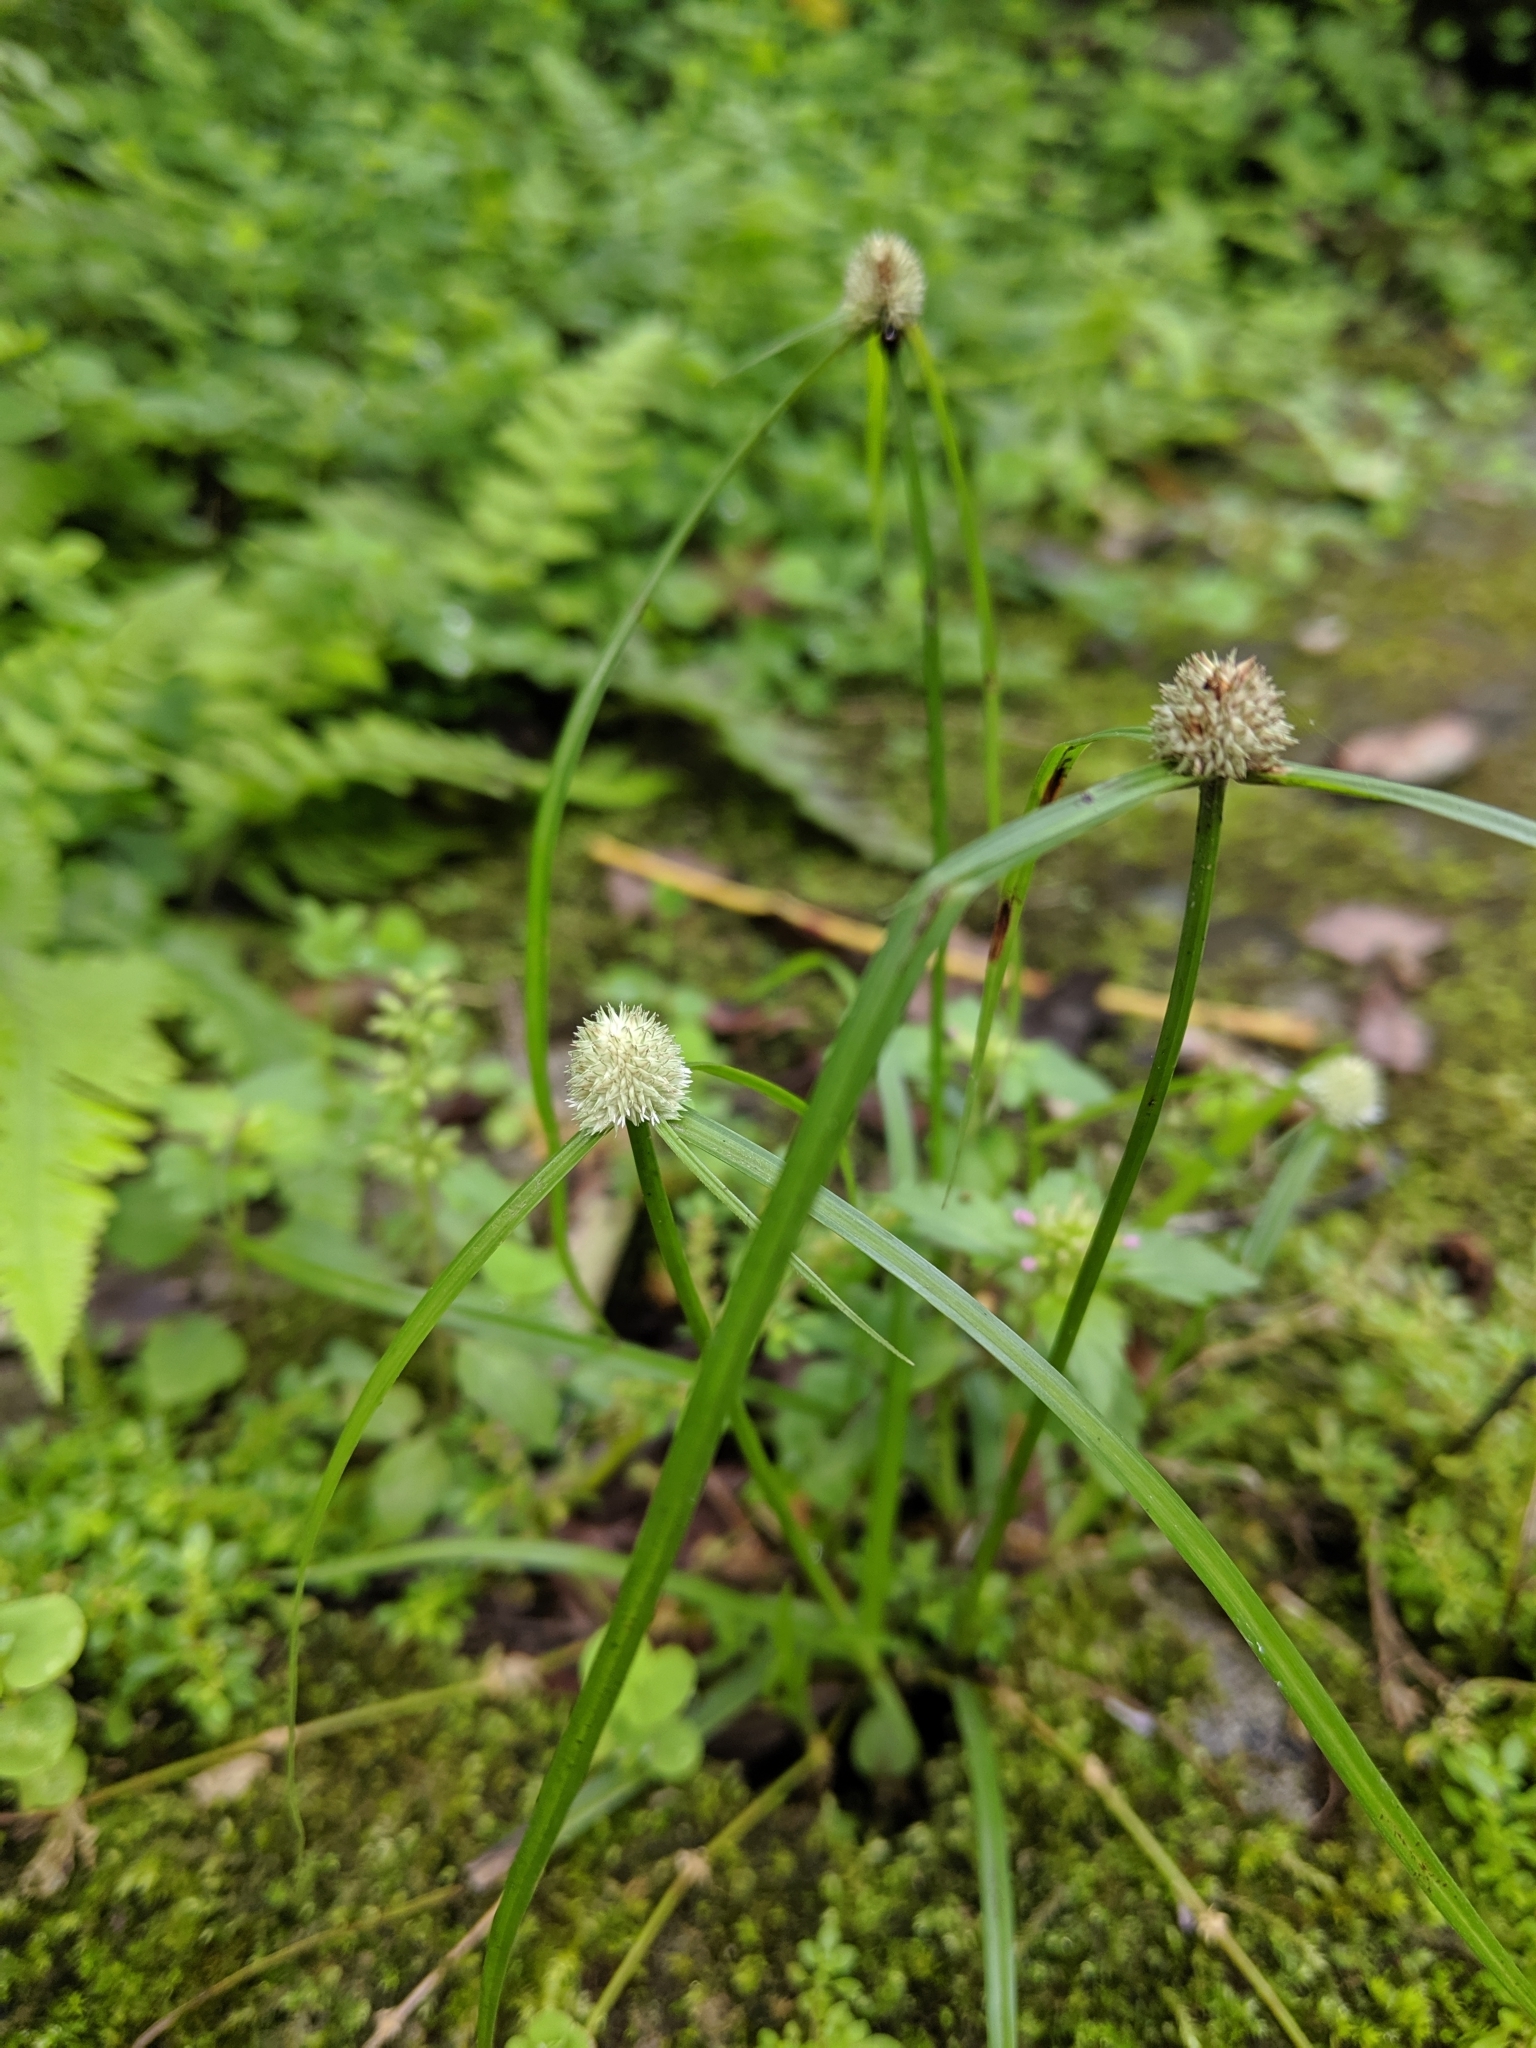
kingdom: Plantae
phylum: Tracheophyta
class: Liliopsida
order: Poales
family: Cyperaceae
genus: Cyperus
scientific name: Cyperus mindorensis
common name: Flatsedge
